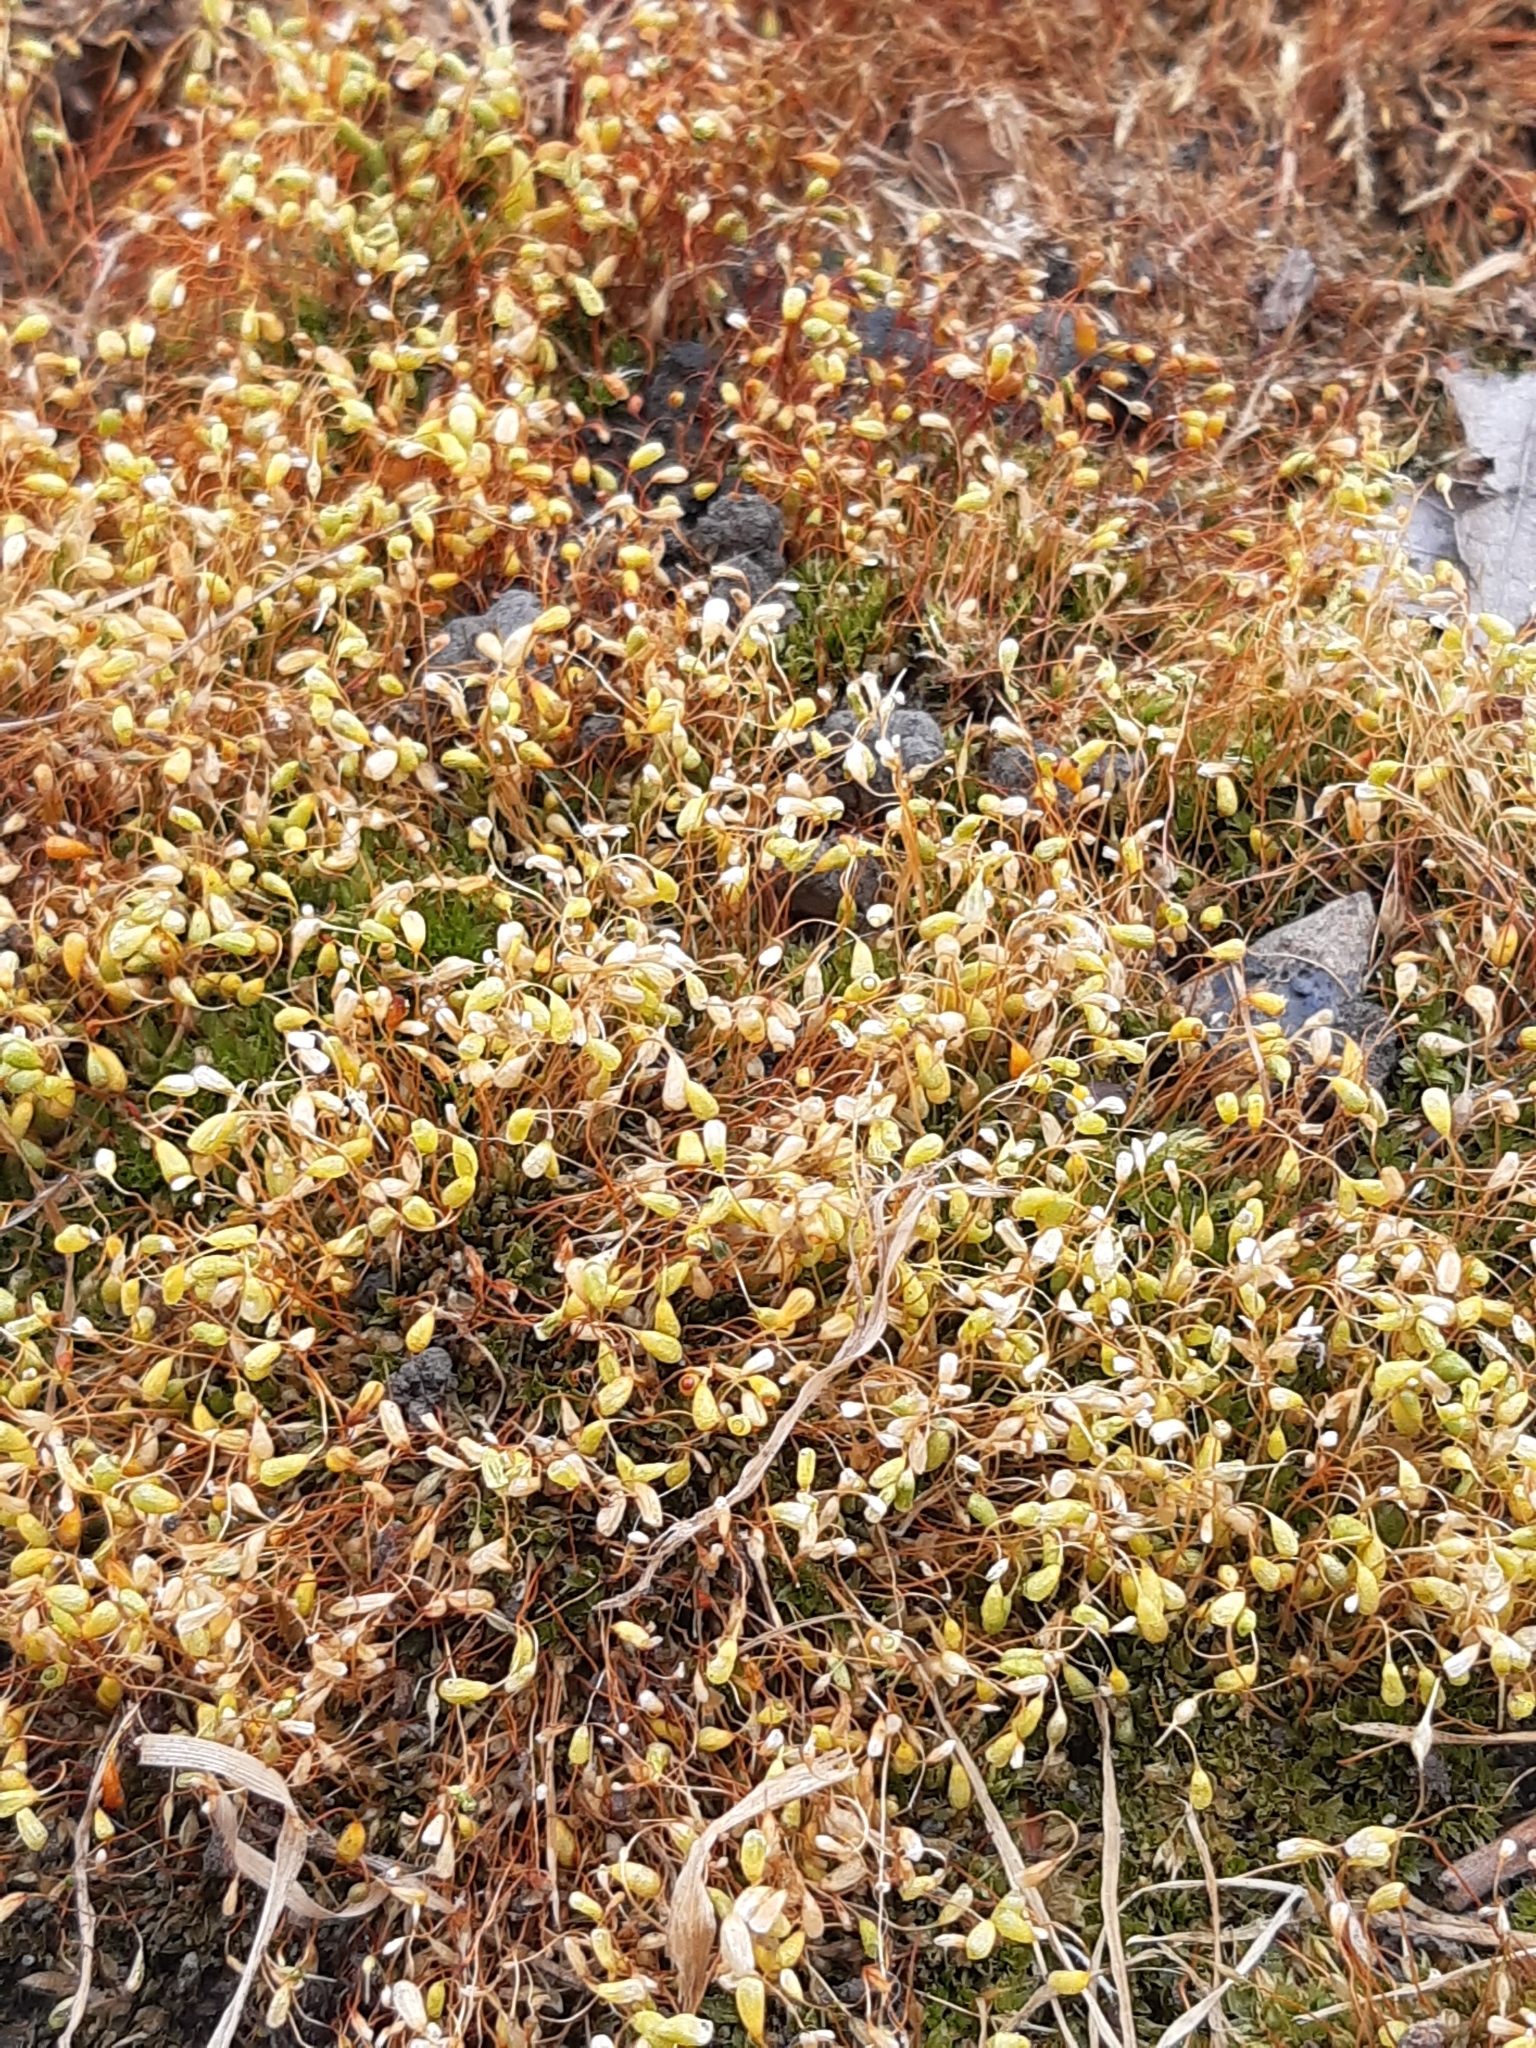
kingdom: Plantae
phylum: Bryophyta
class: Bryopsida
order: Funariales
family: Funariaceae
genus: Funaria
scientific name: Funaria hygrometrica
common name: Common cord moss
